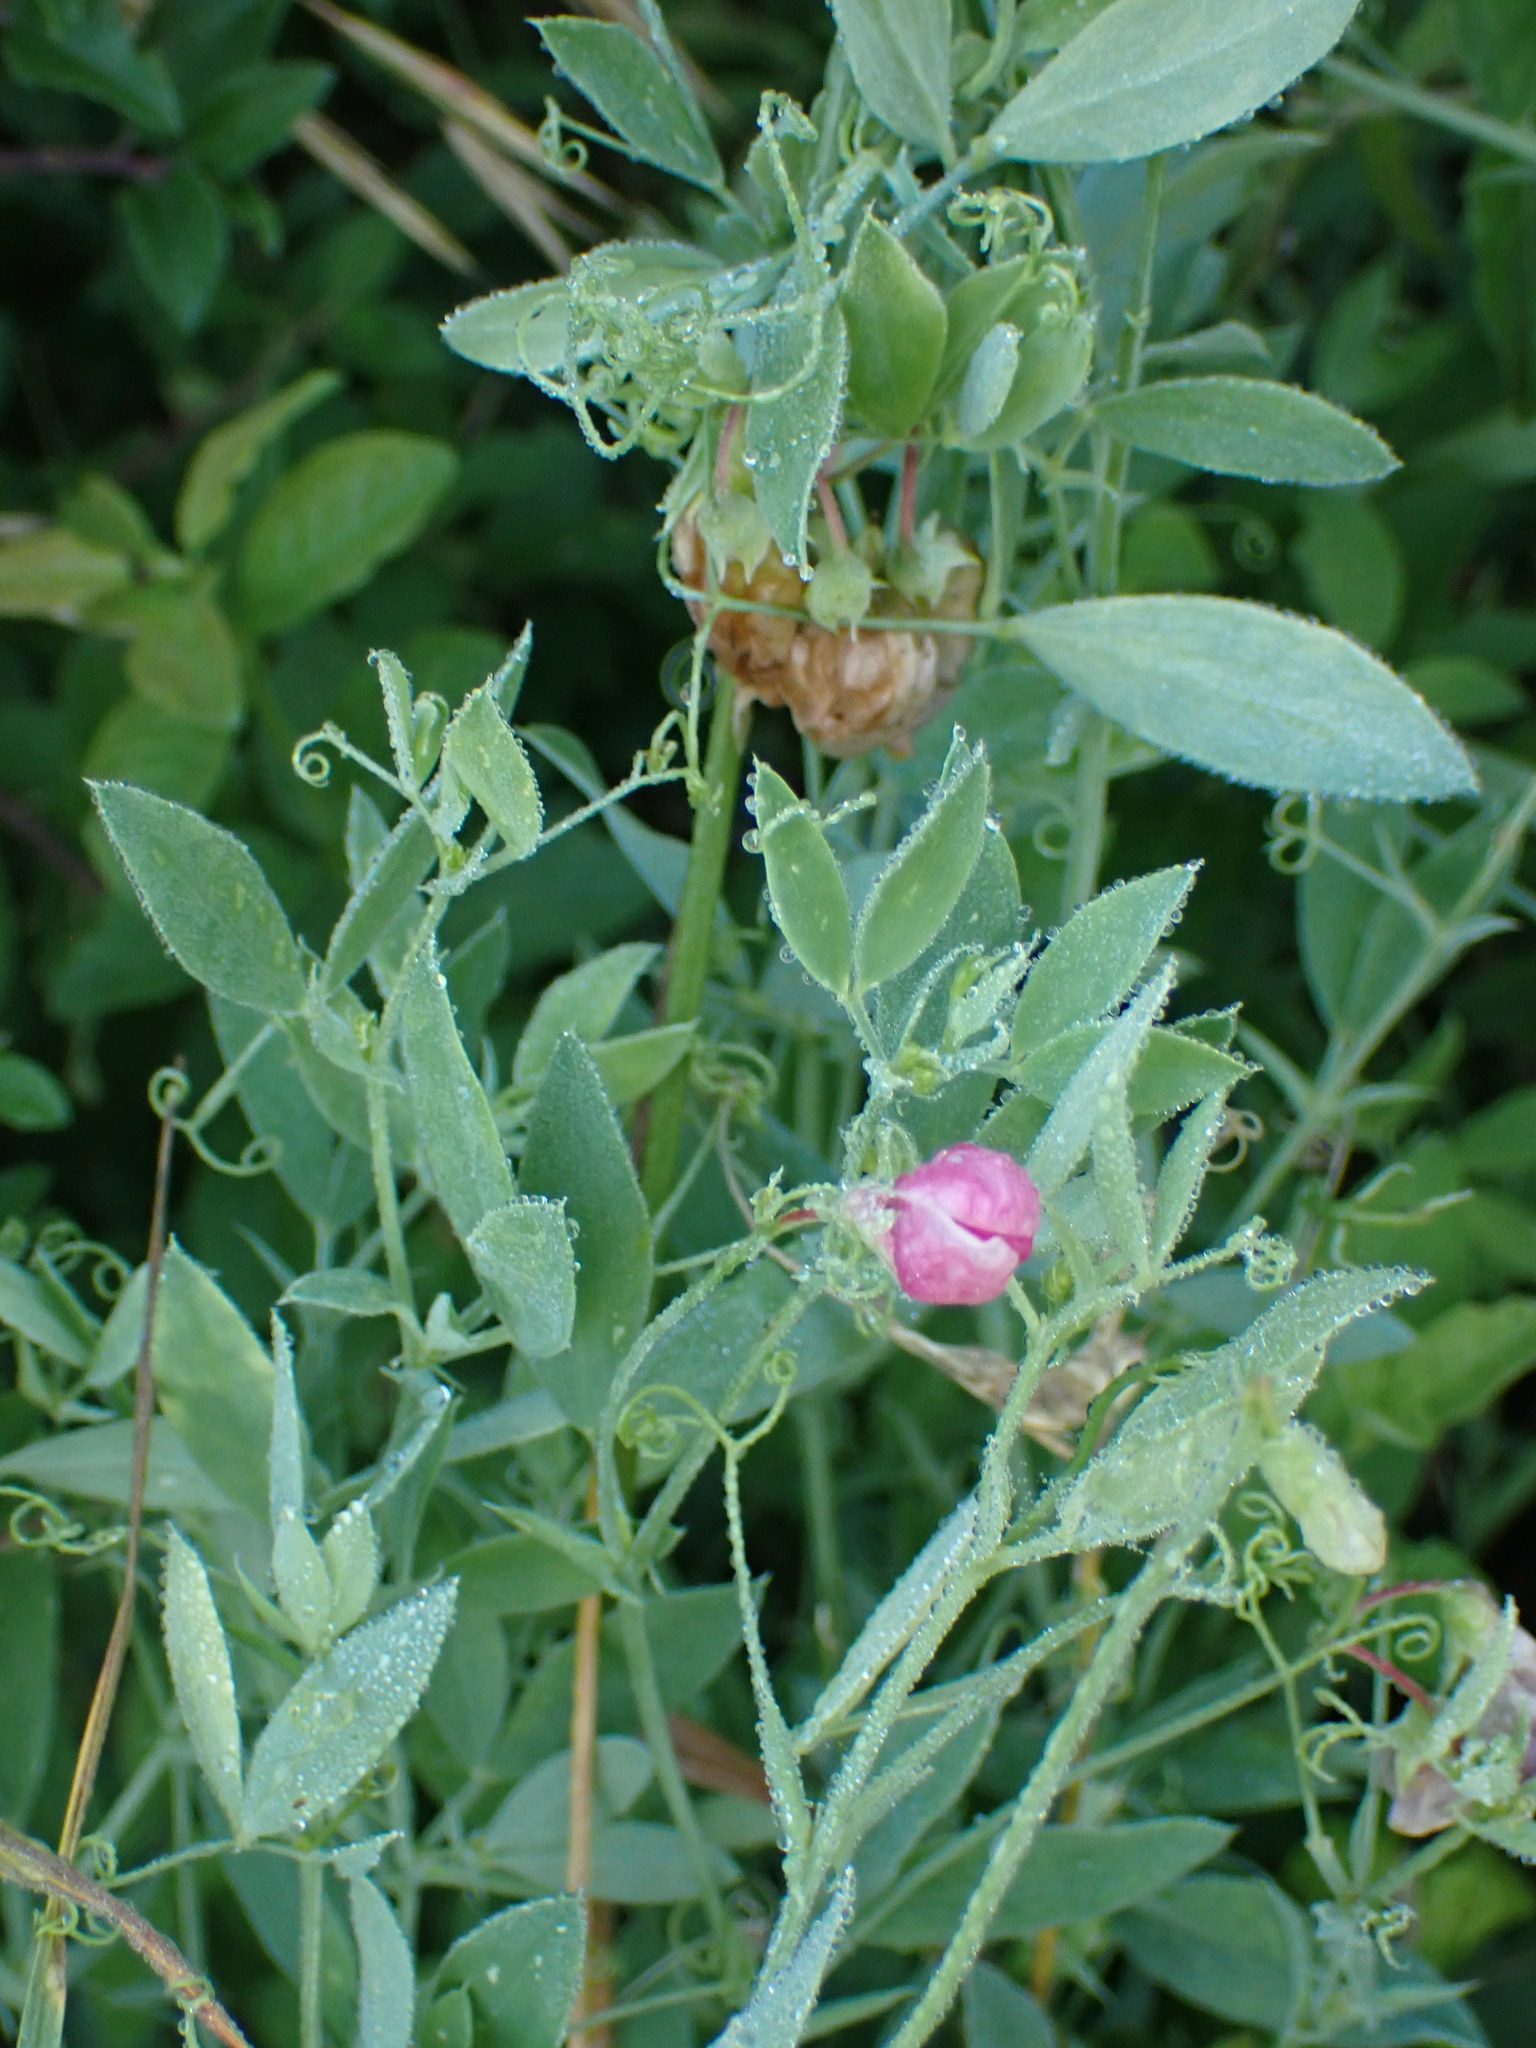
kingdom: Plantae
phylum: Tracheophyta
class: Magnoliopsida
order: Fabales
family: Fabaceae
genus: Lathyrus
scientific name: Lathyrus tuberosus
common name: Tuberous pea
